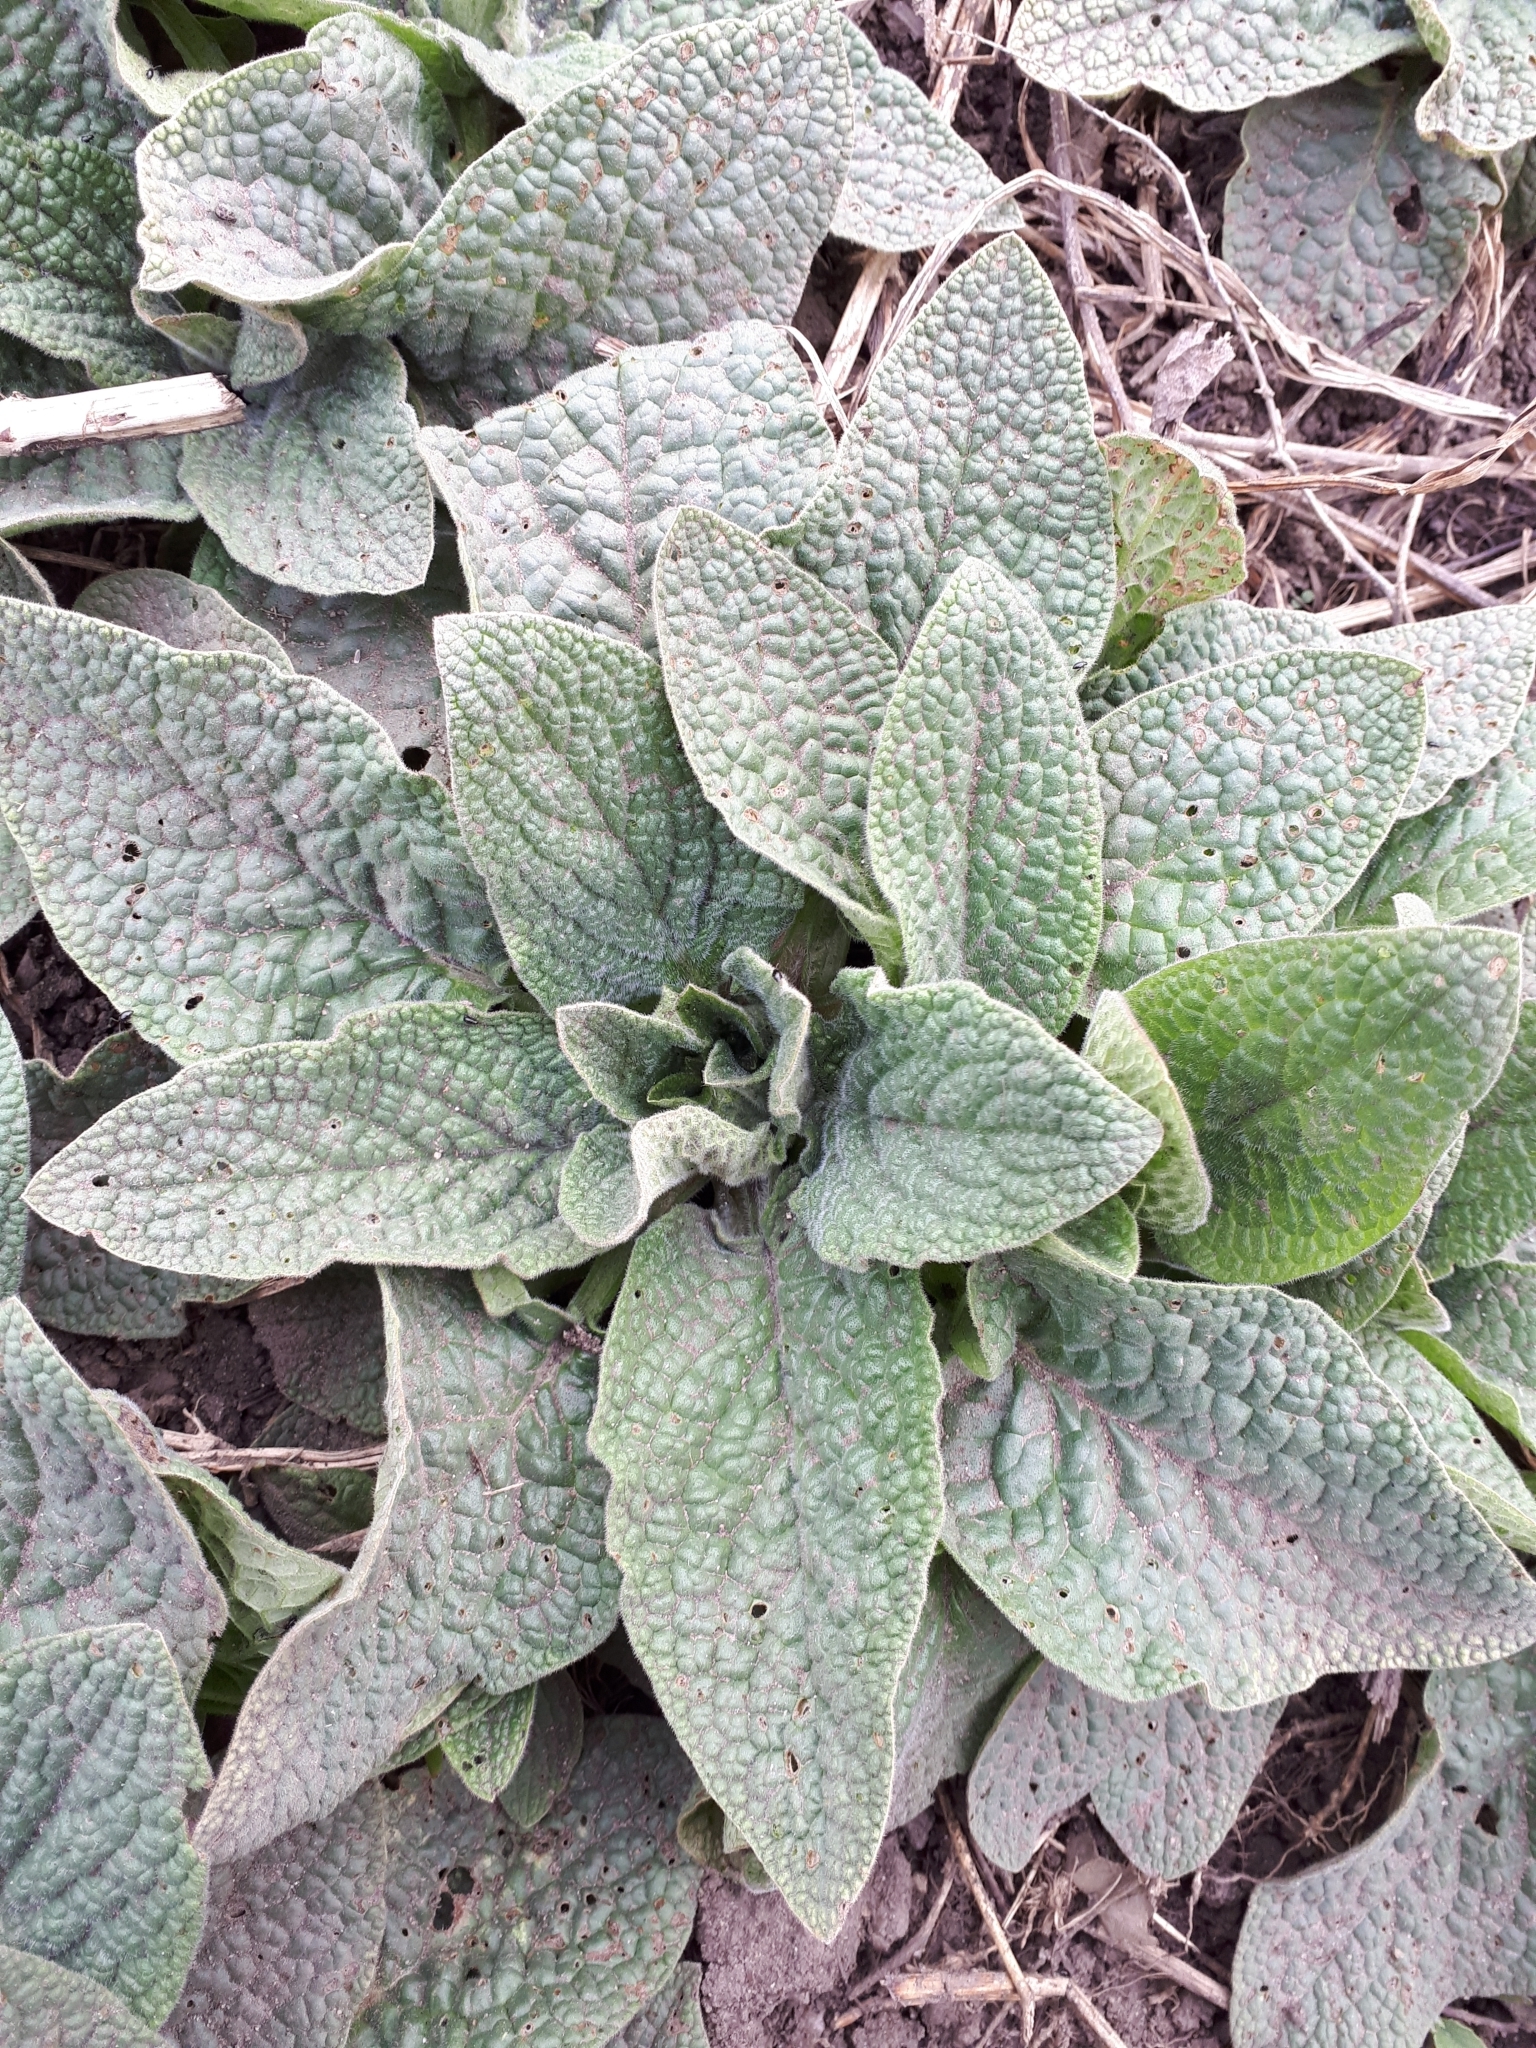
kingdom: Plantae
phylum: Tracheophyta
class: Magnoliopsida
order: Boraginales
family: Boraginaceae
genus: Symphytum
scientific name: Symphytum caucasicum
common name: Caucasian comfrey
